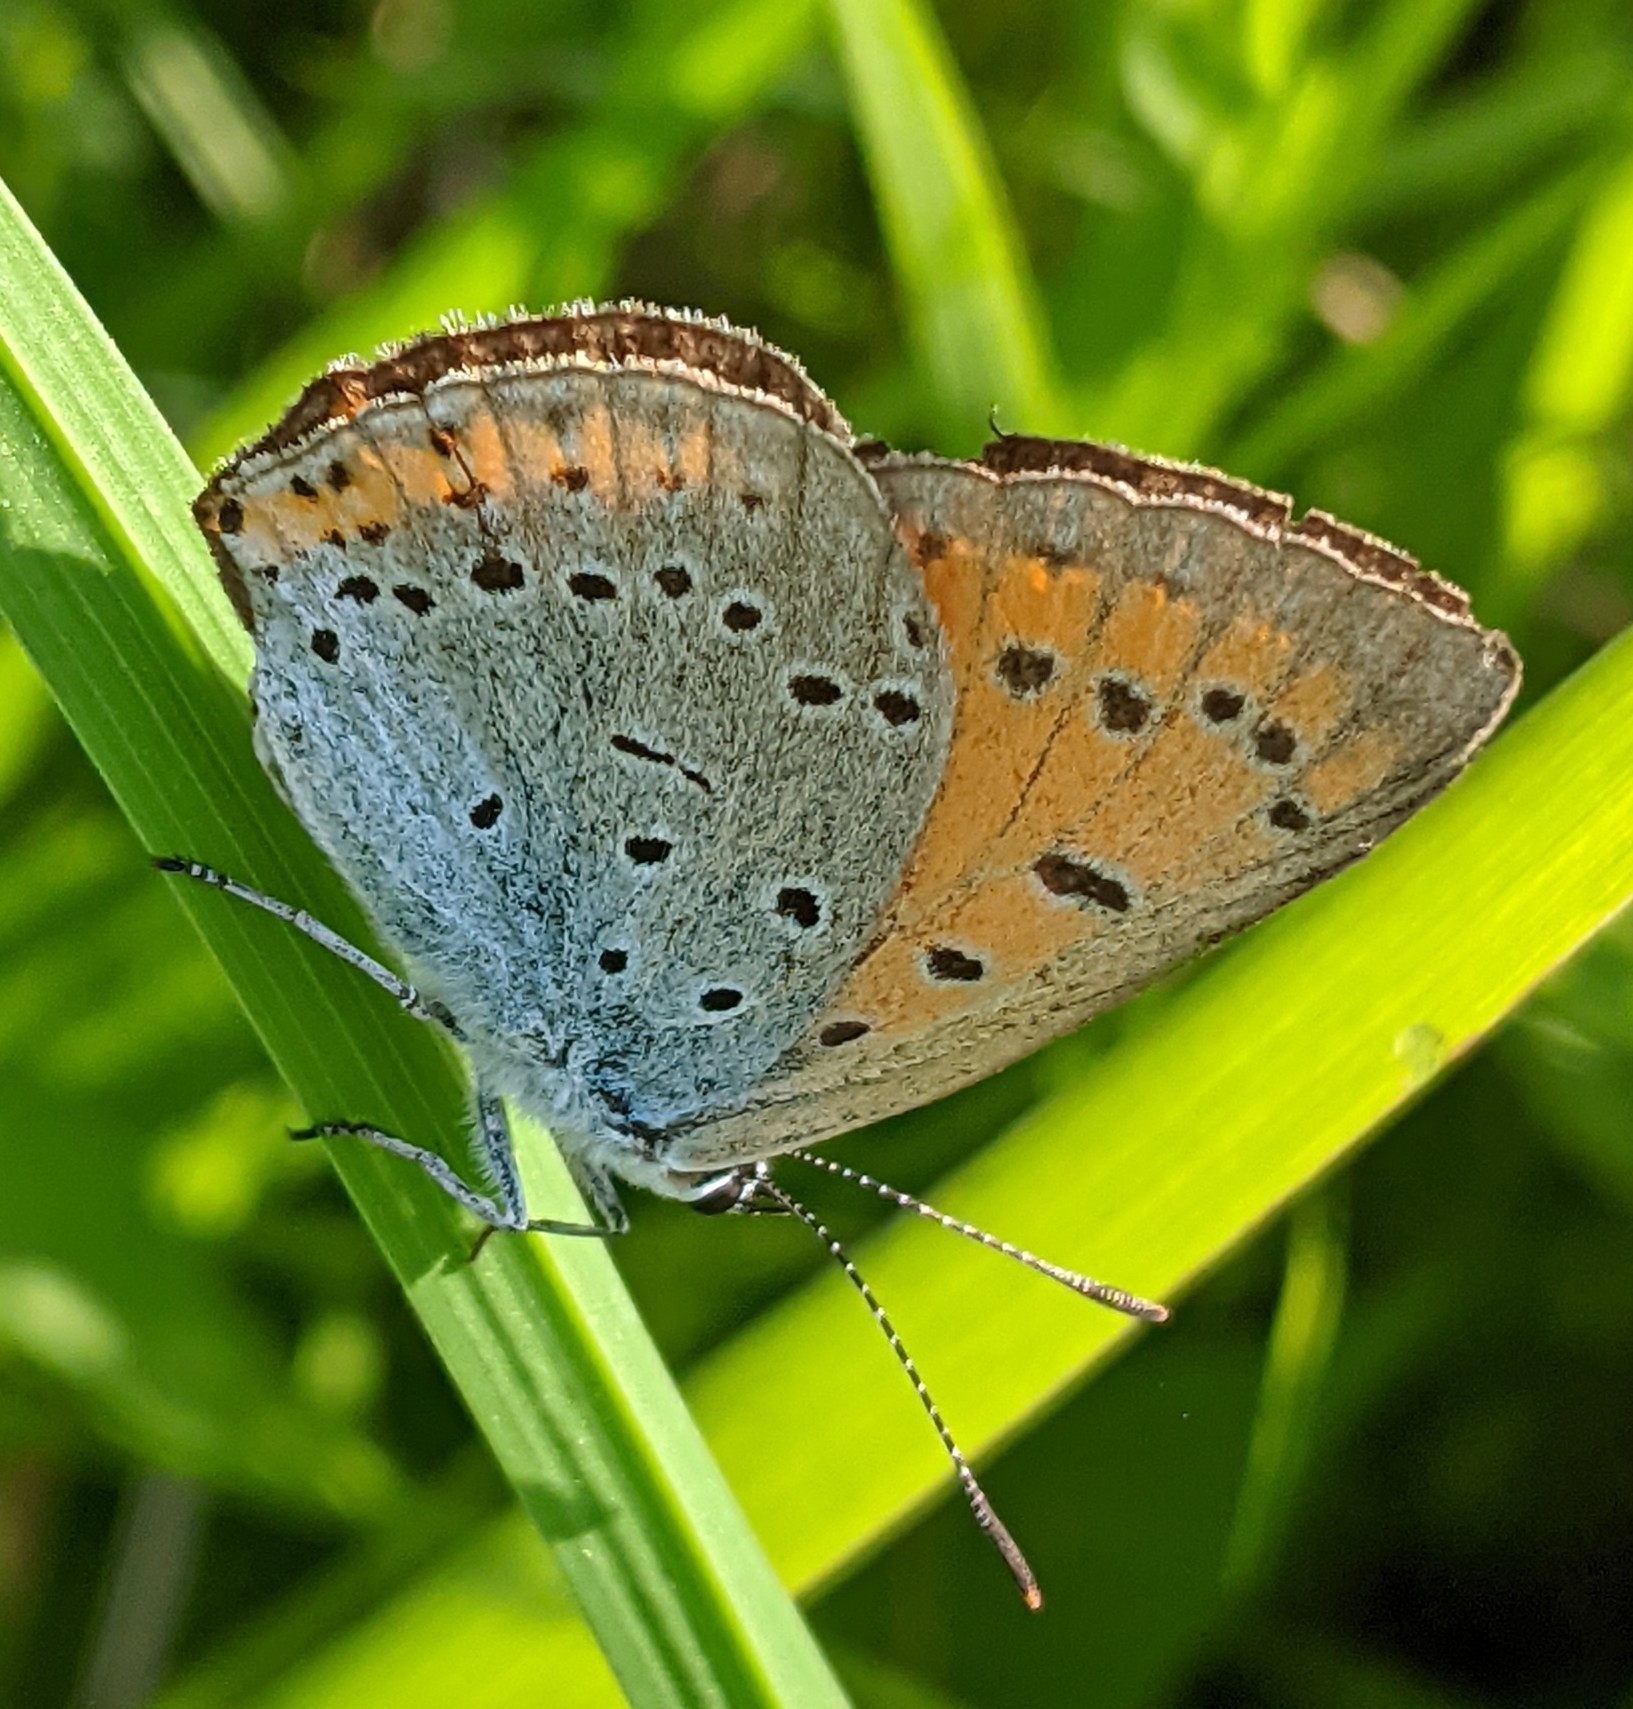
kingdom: Animalia
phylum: Arthropoda
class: Insecta
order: Lepidoptera
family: Lycaenidae
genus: Lycaena
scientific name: Lycaena dispar
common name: Large copper
